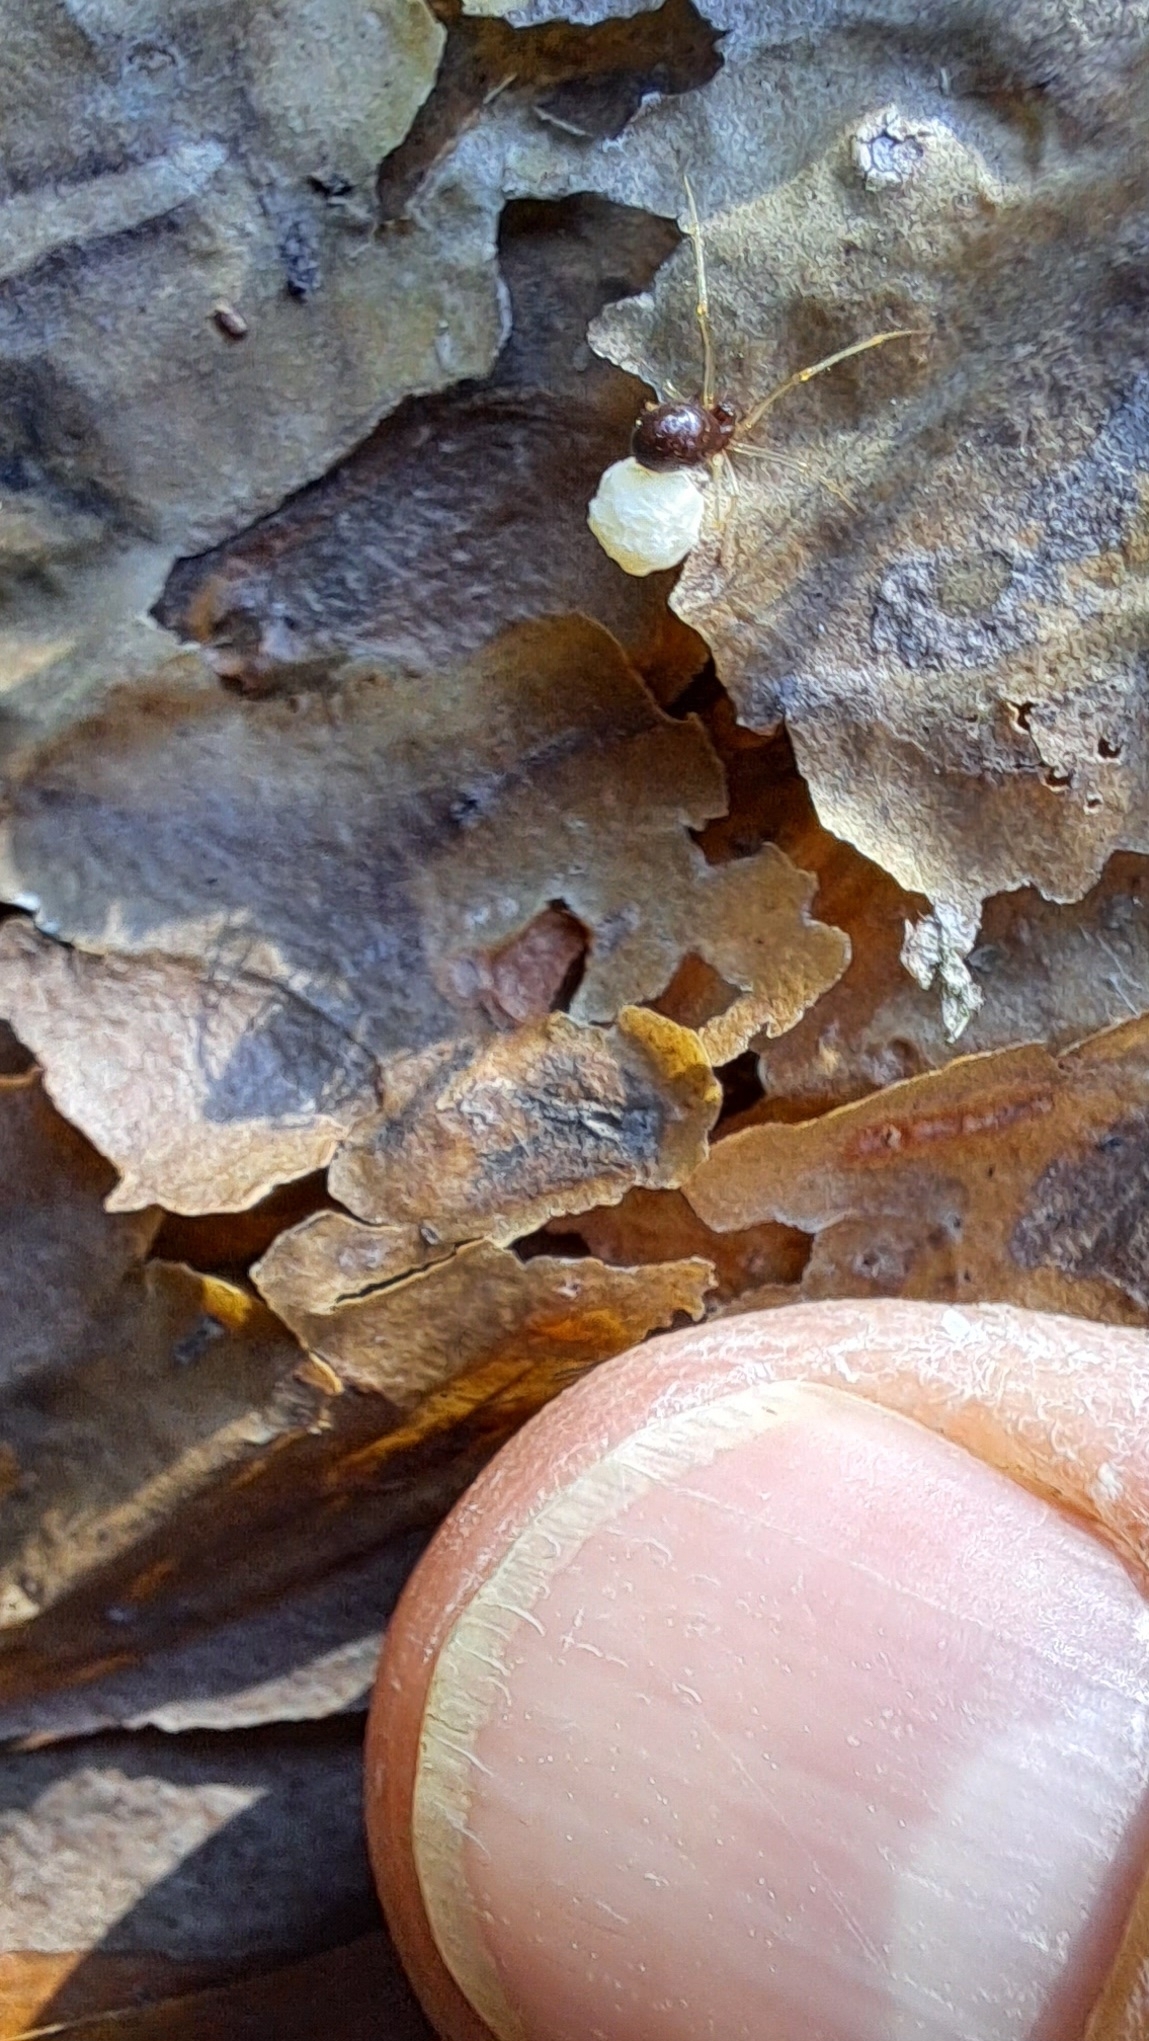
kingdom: Animalia
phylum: Arthropoda
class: Arachnida
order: Araneae
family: Theridiidae
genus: Neottiura
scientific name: Neottiura bimaculata
